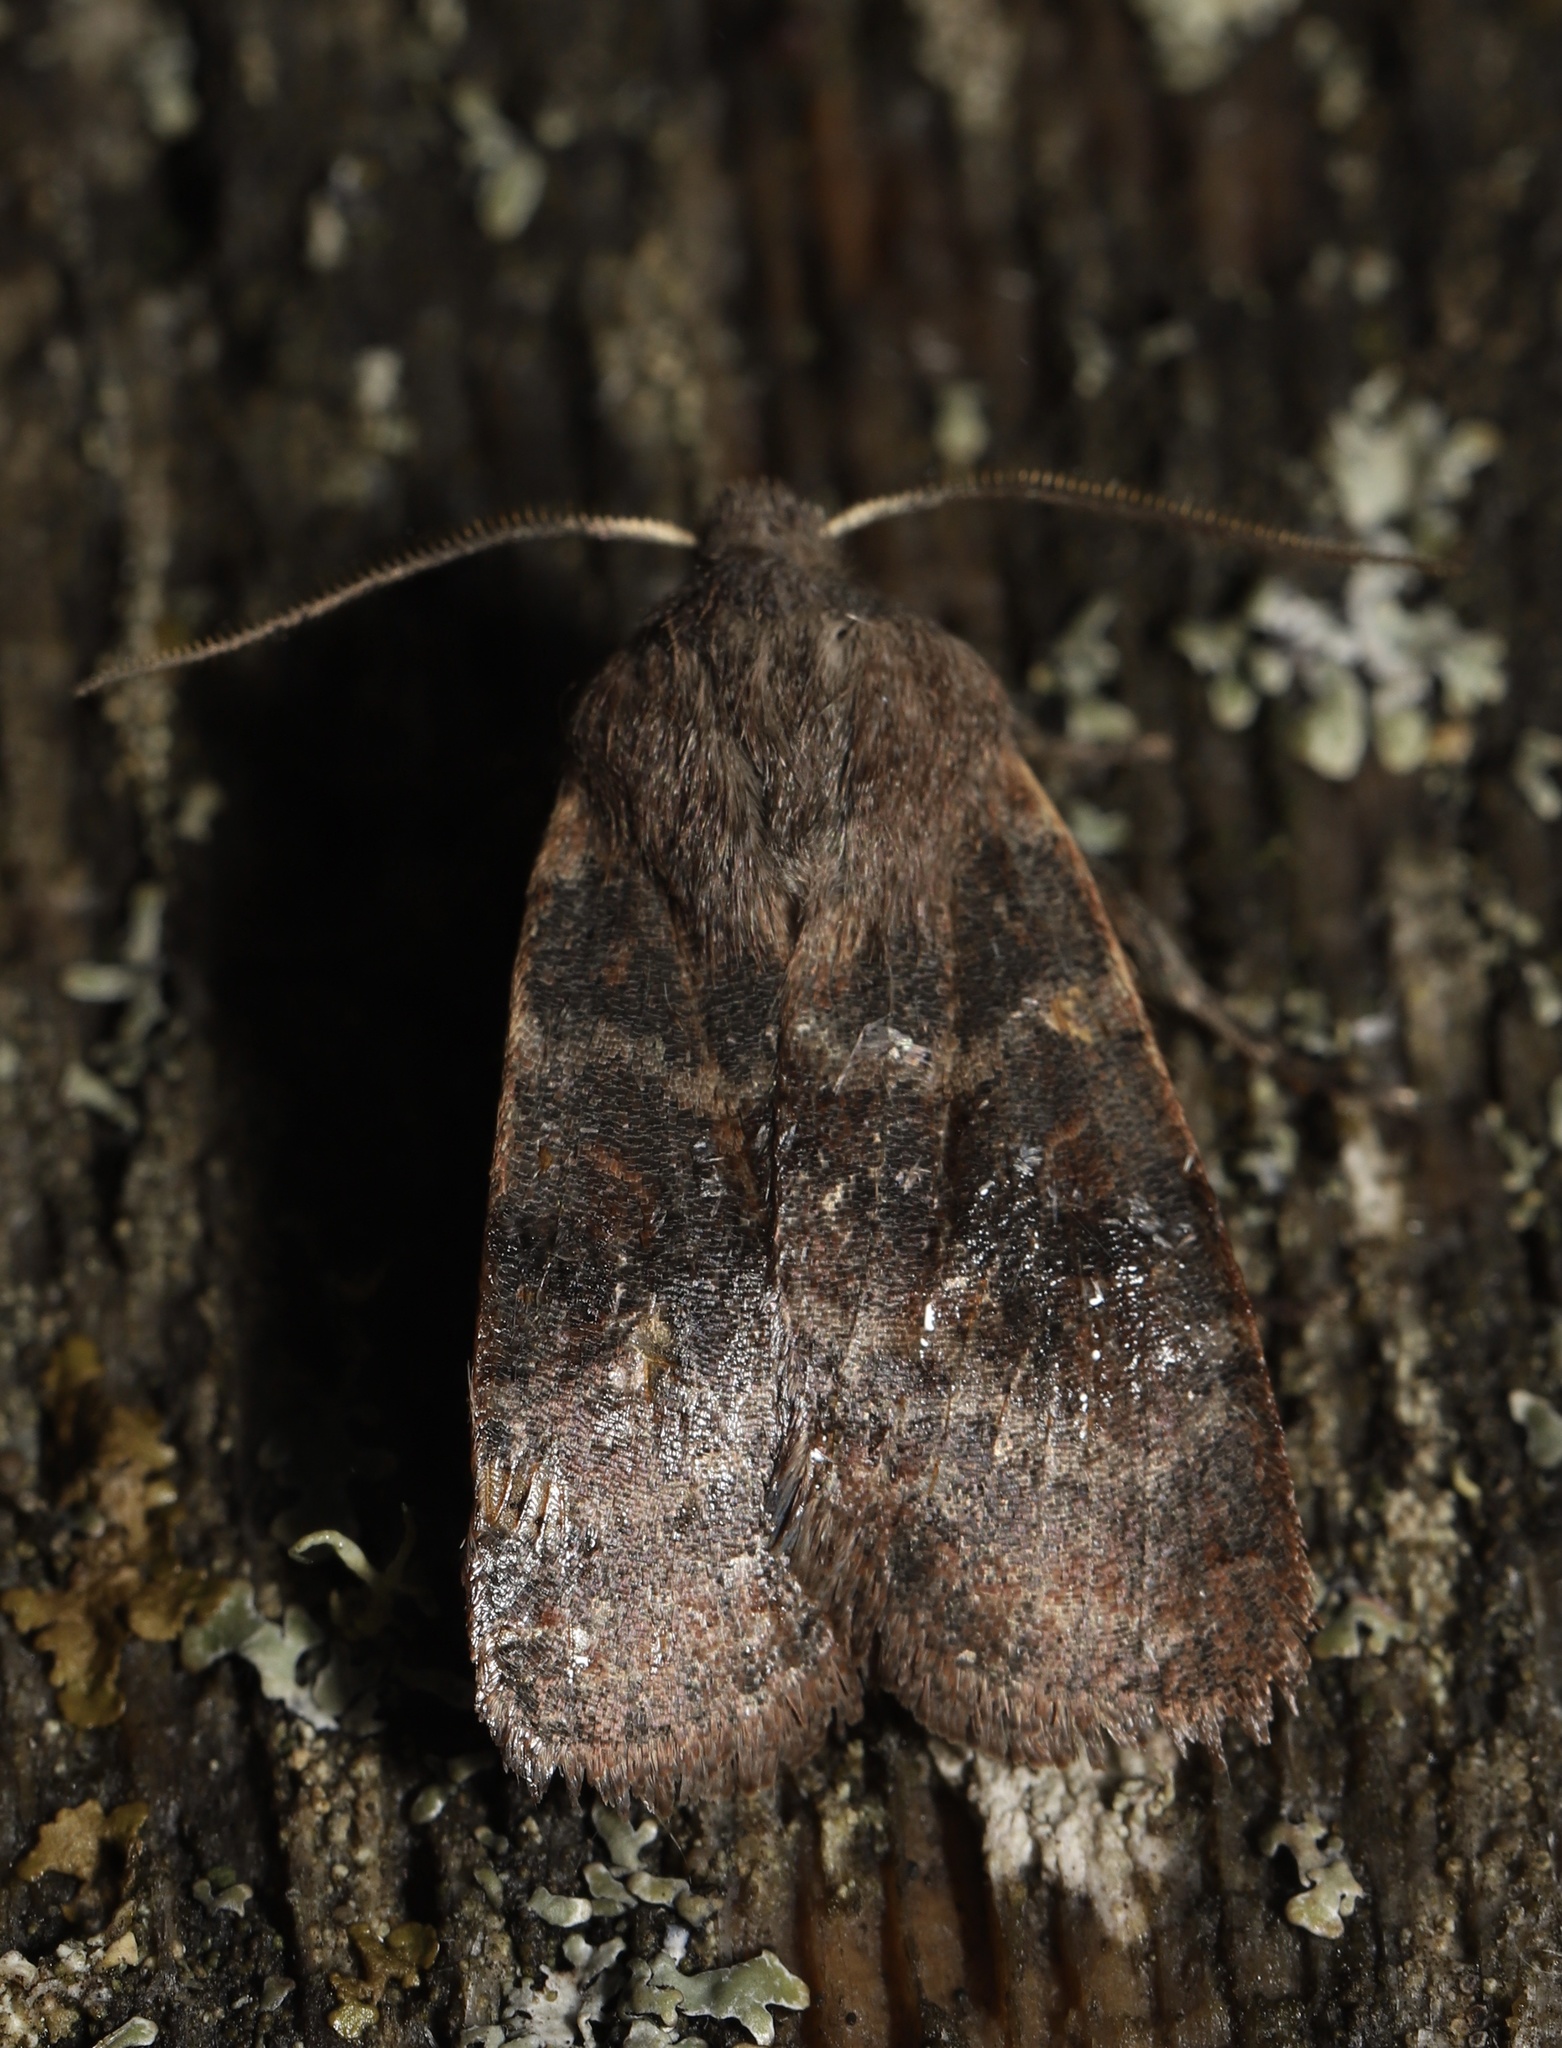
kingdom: Animalia
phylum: Arthropoda
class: Insecta
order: Lepidoptera
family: Noctuidae
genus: Homoglaea
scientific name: Homoglaea hircina
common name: Goat sallow
